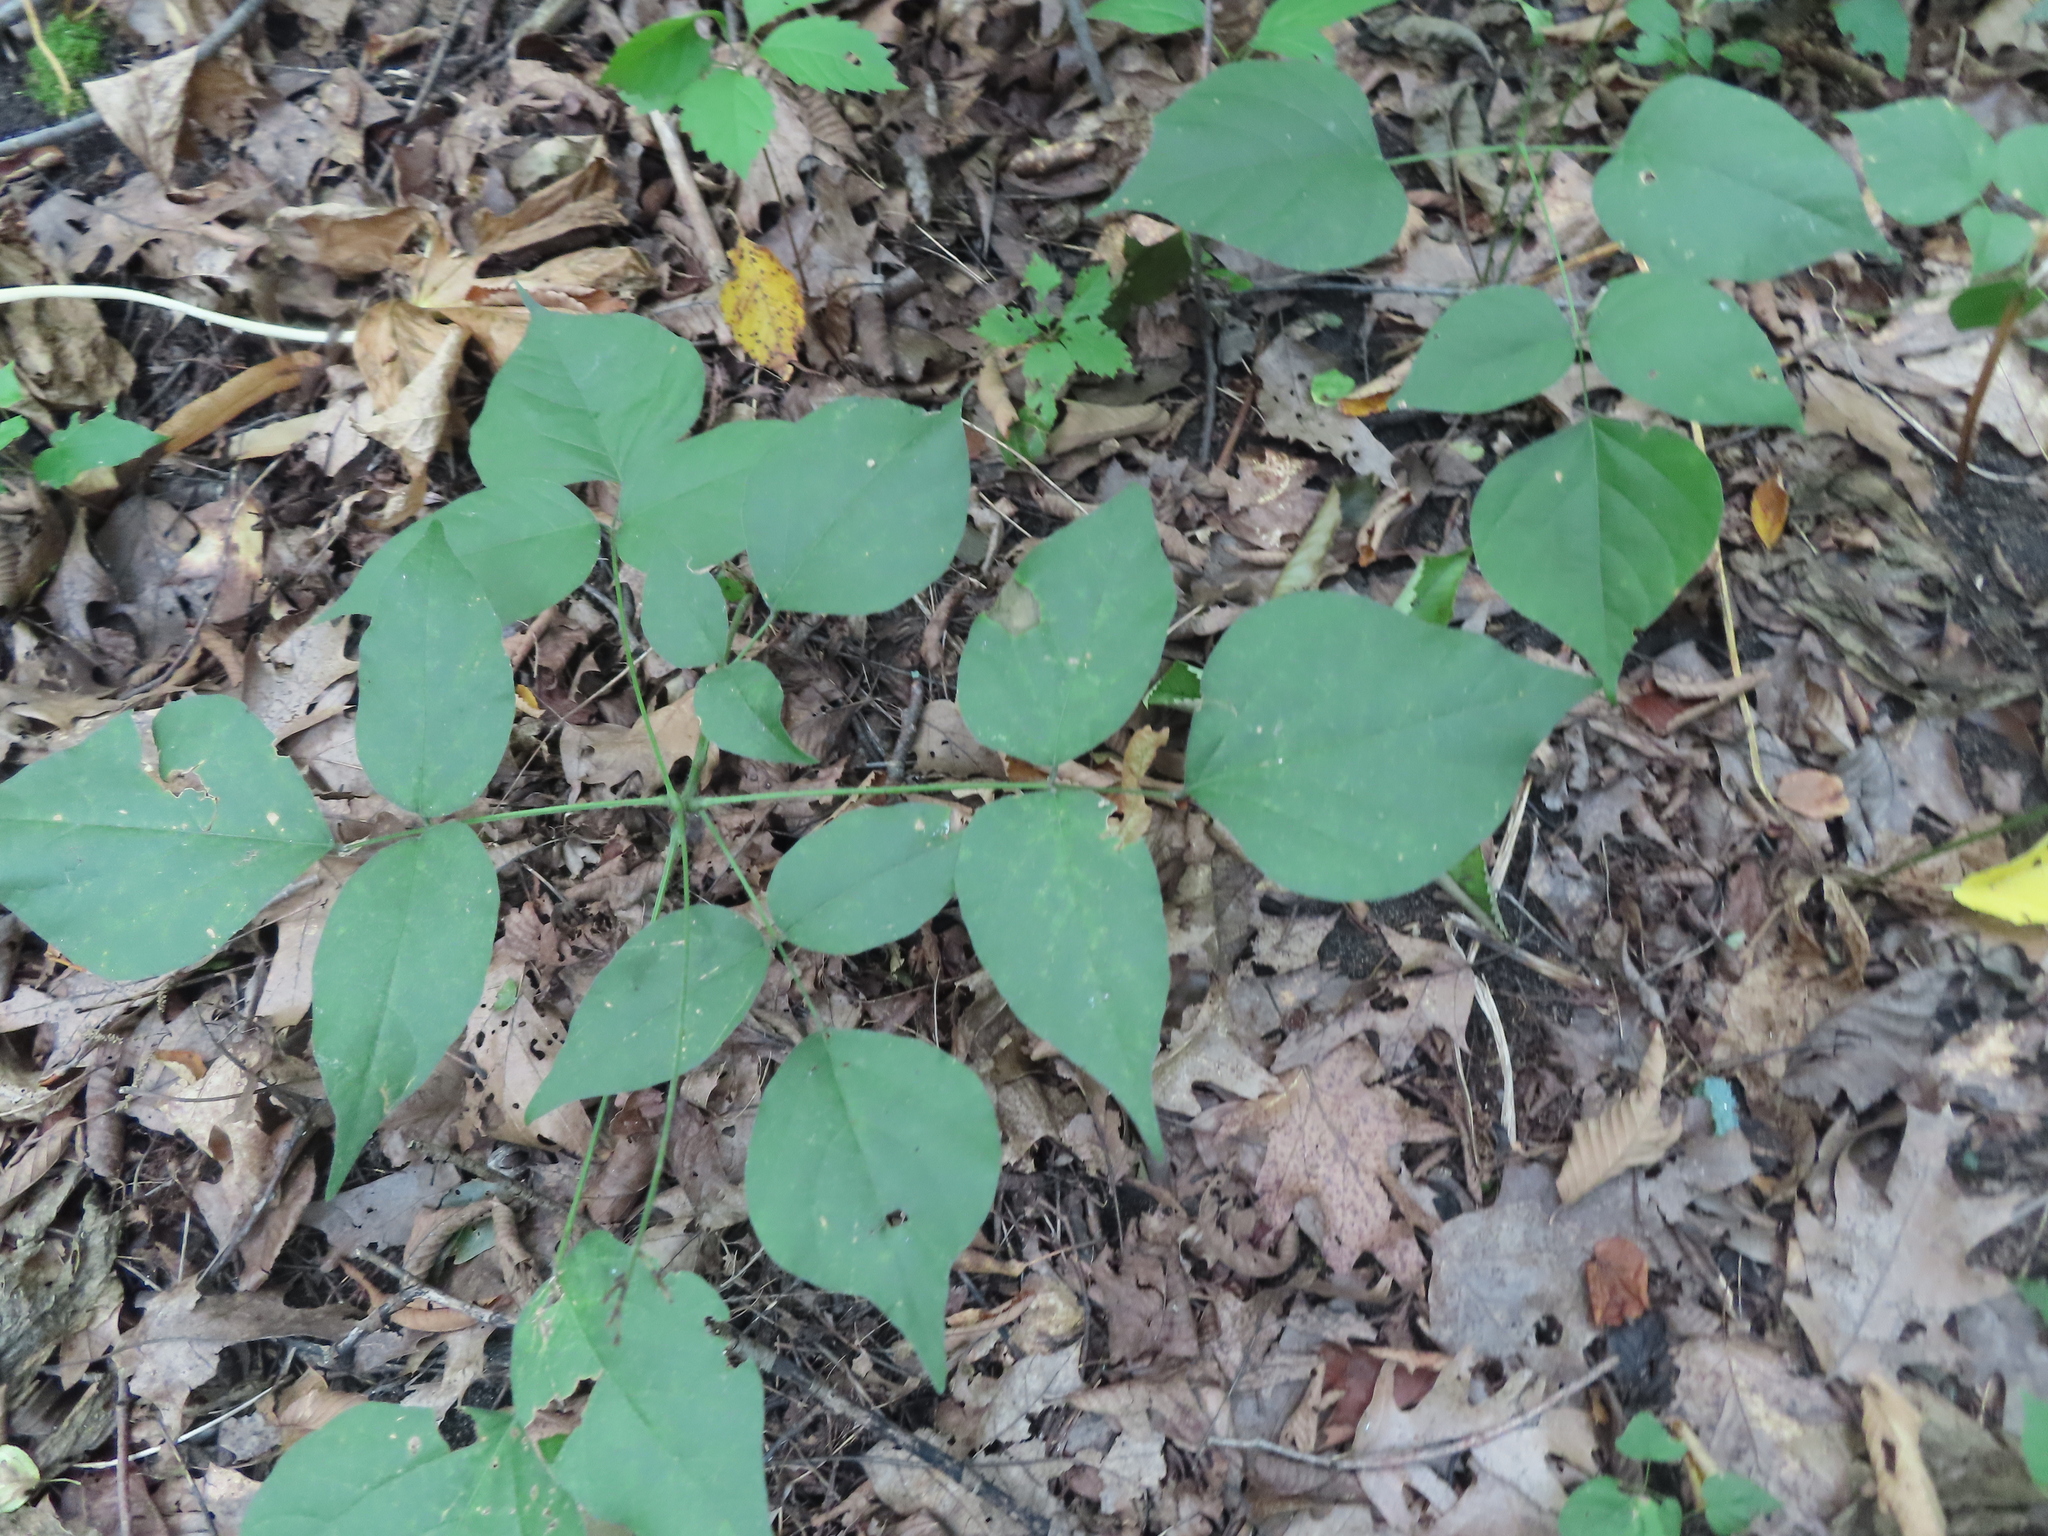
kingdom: Plantae
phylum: Tracheophyta
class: Magnoliopsida
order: Fabales
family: Fabaceae
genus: Hylodesmum
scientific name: Hylodesmum glutinosum
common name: Clustered-leaved tick-trefoil
